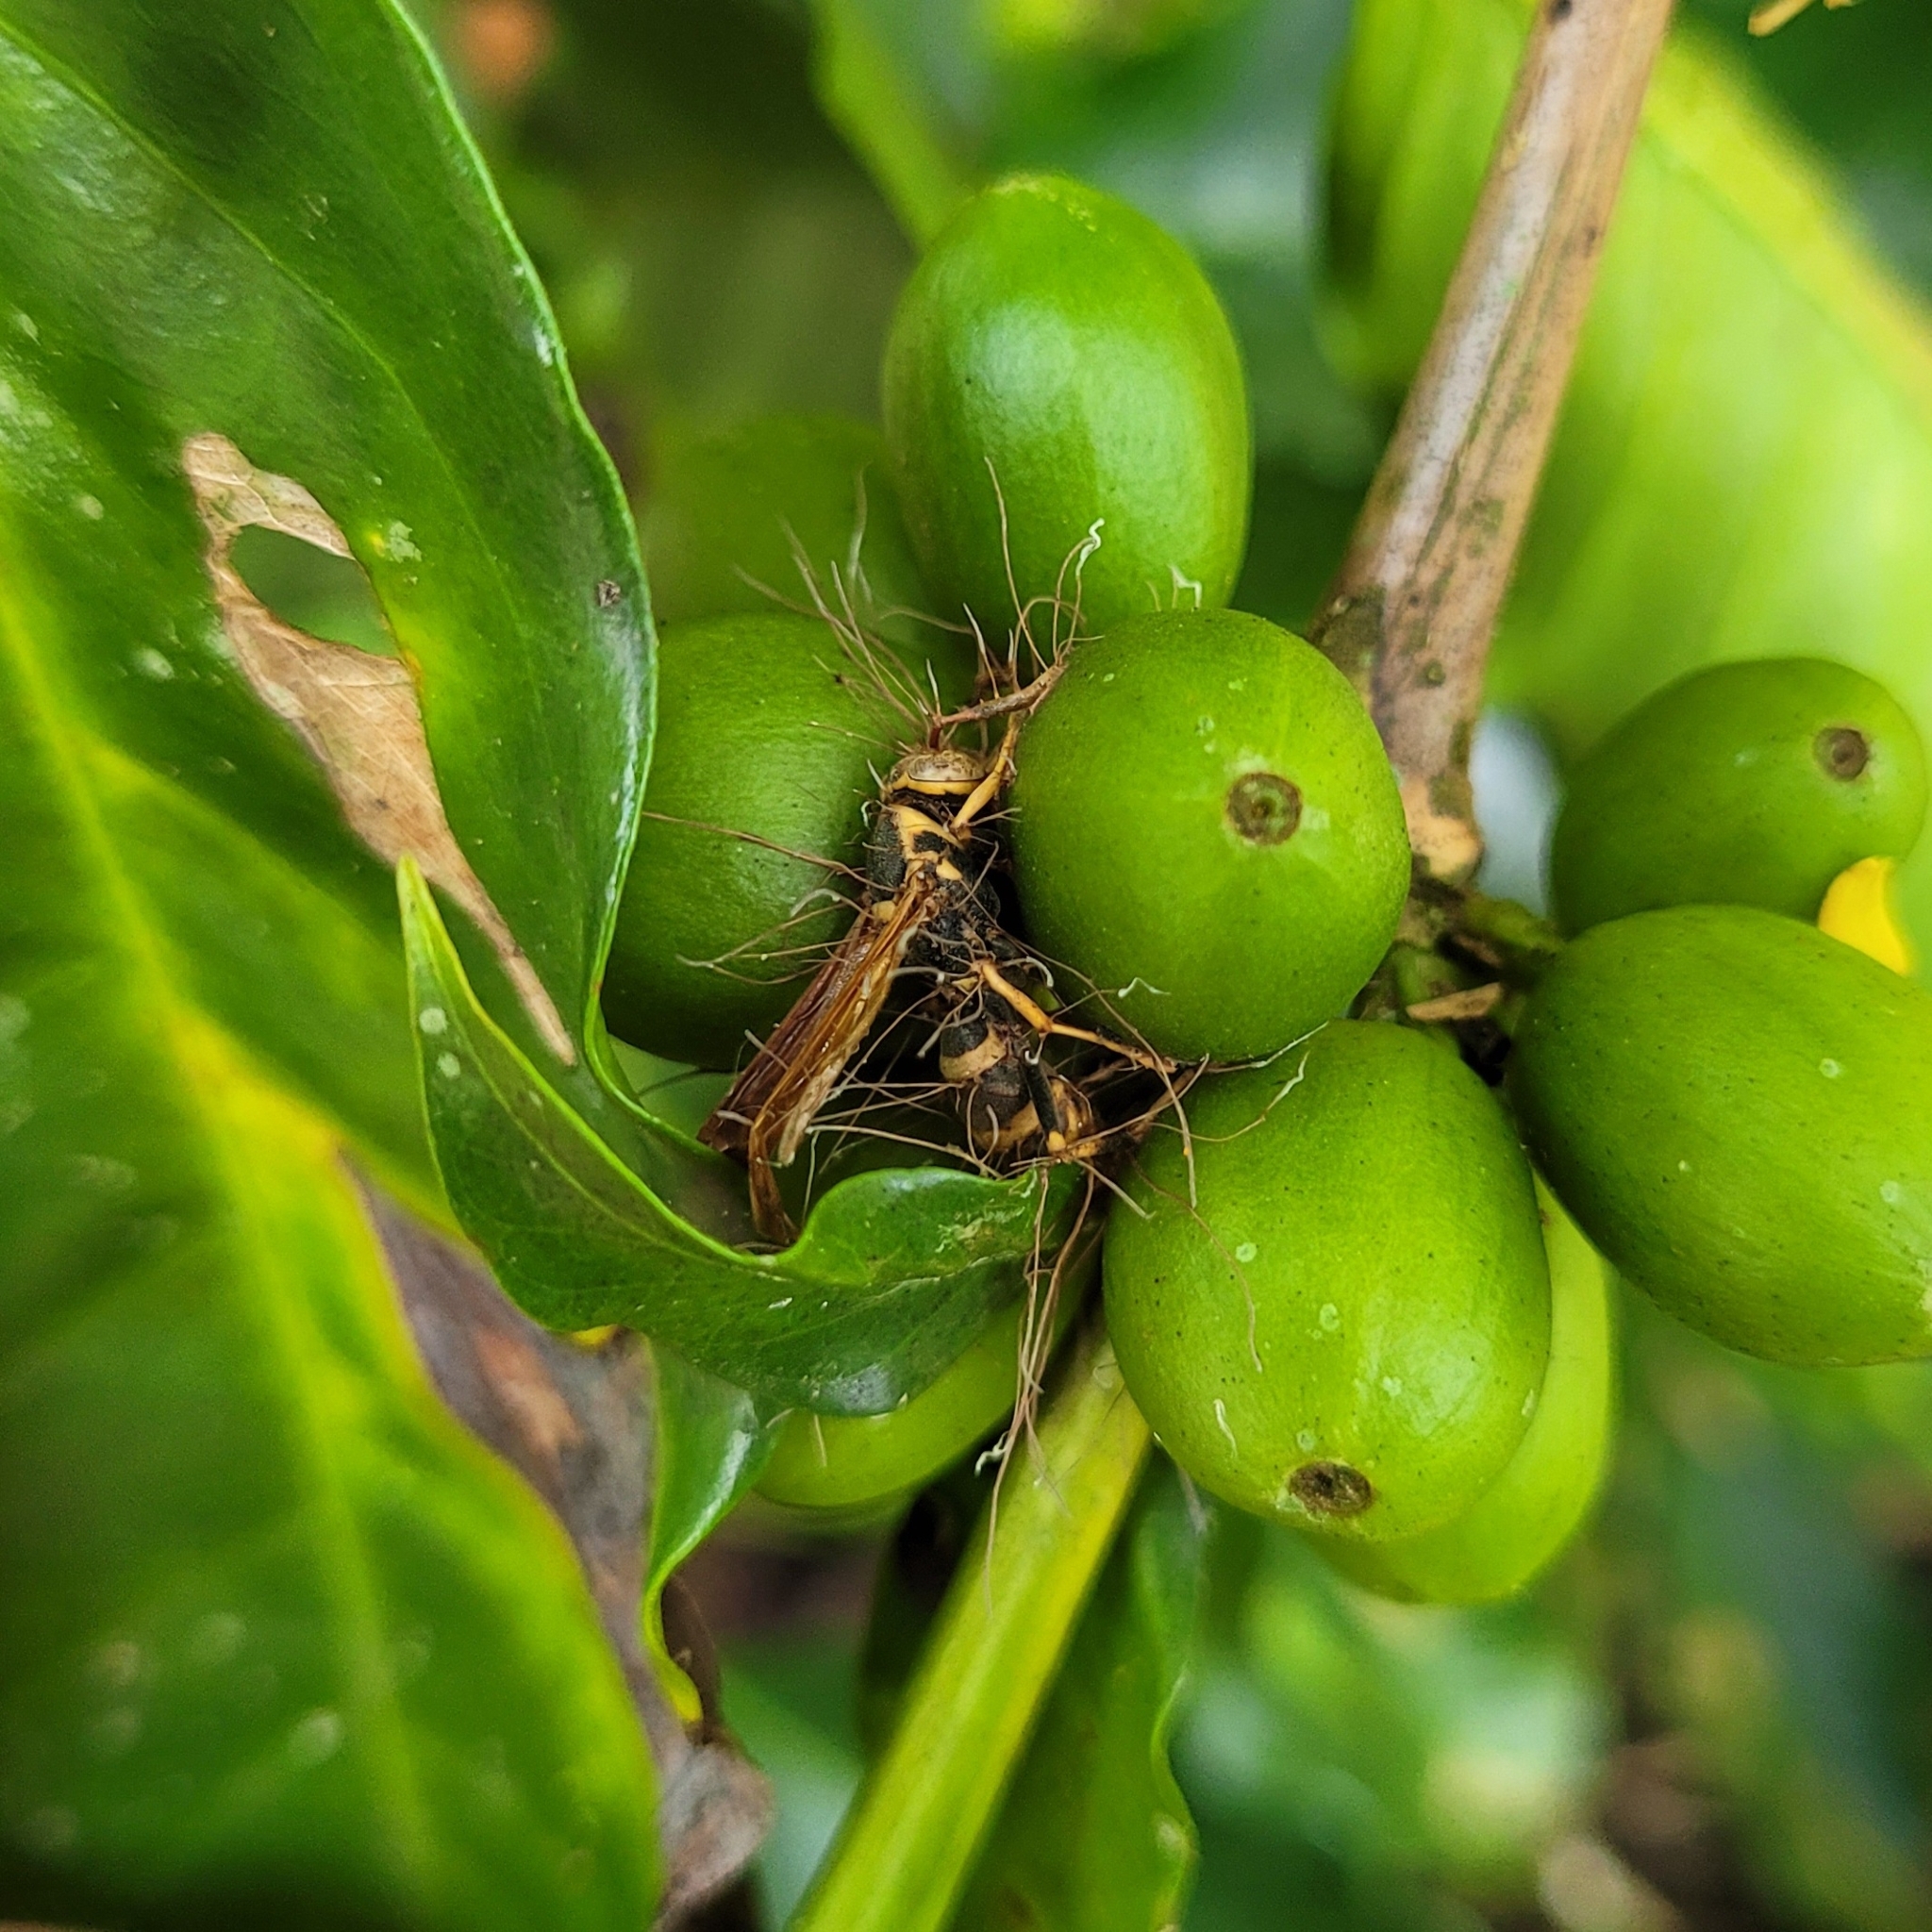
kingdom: Fungi
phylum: Ascomycota
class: Sordariomycetes
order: Hypocreales
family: Ophiocordycipitaceae
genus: Ophiocordyceps
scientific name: Ophiocordyceps humbertii
